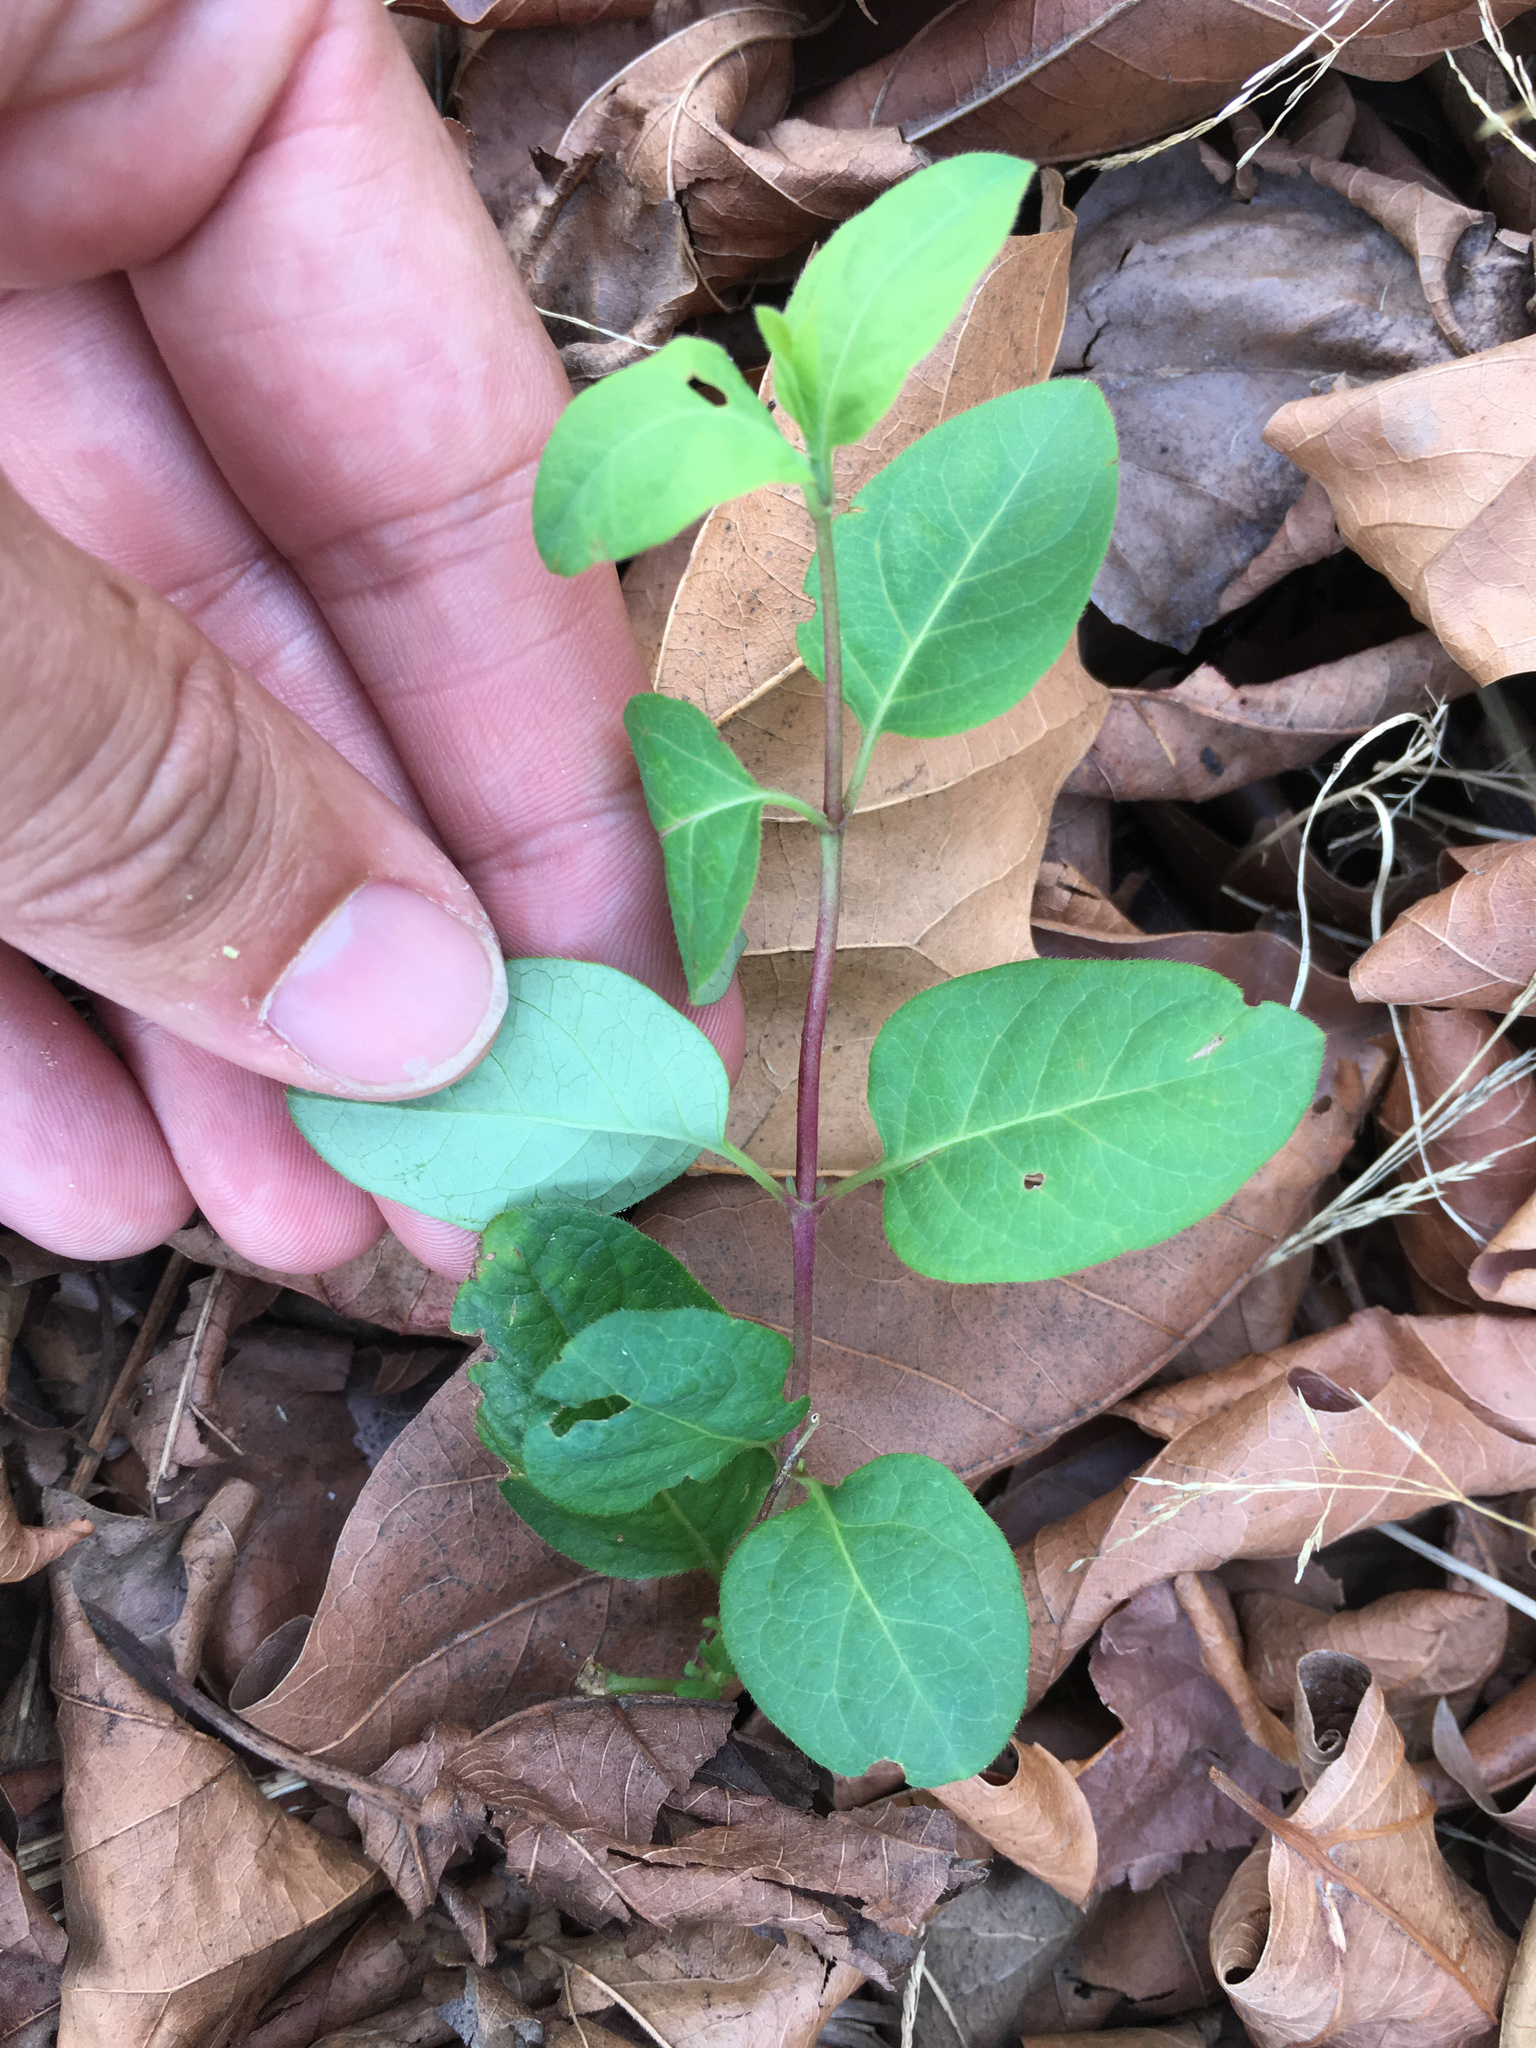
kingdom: Plantae
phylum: Tracheophyta
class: Magnoliopsida
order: Dipsacales
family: Caprifoliaceae
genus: Lonicera
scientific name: Lonicera japonica
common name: Japanese honeysuckle
